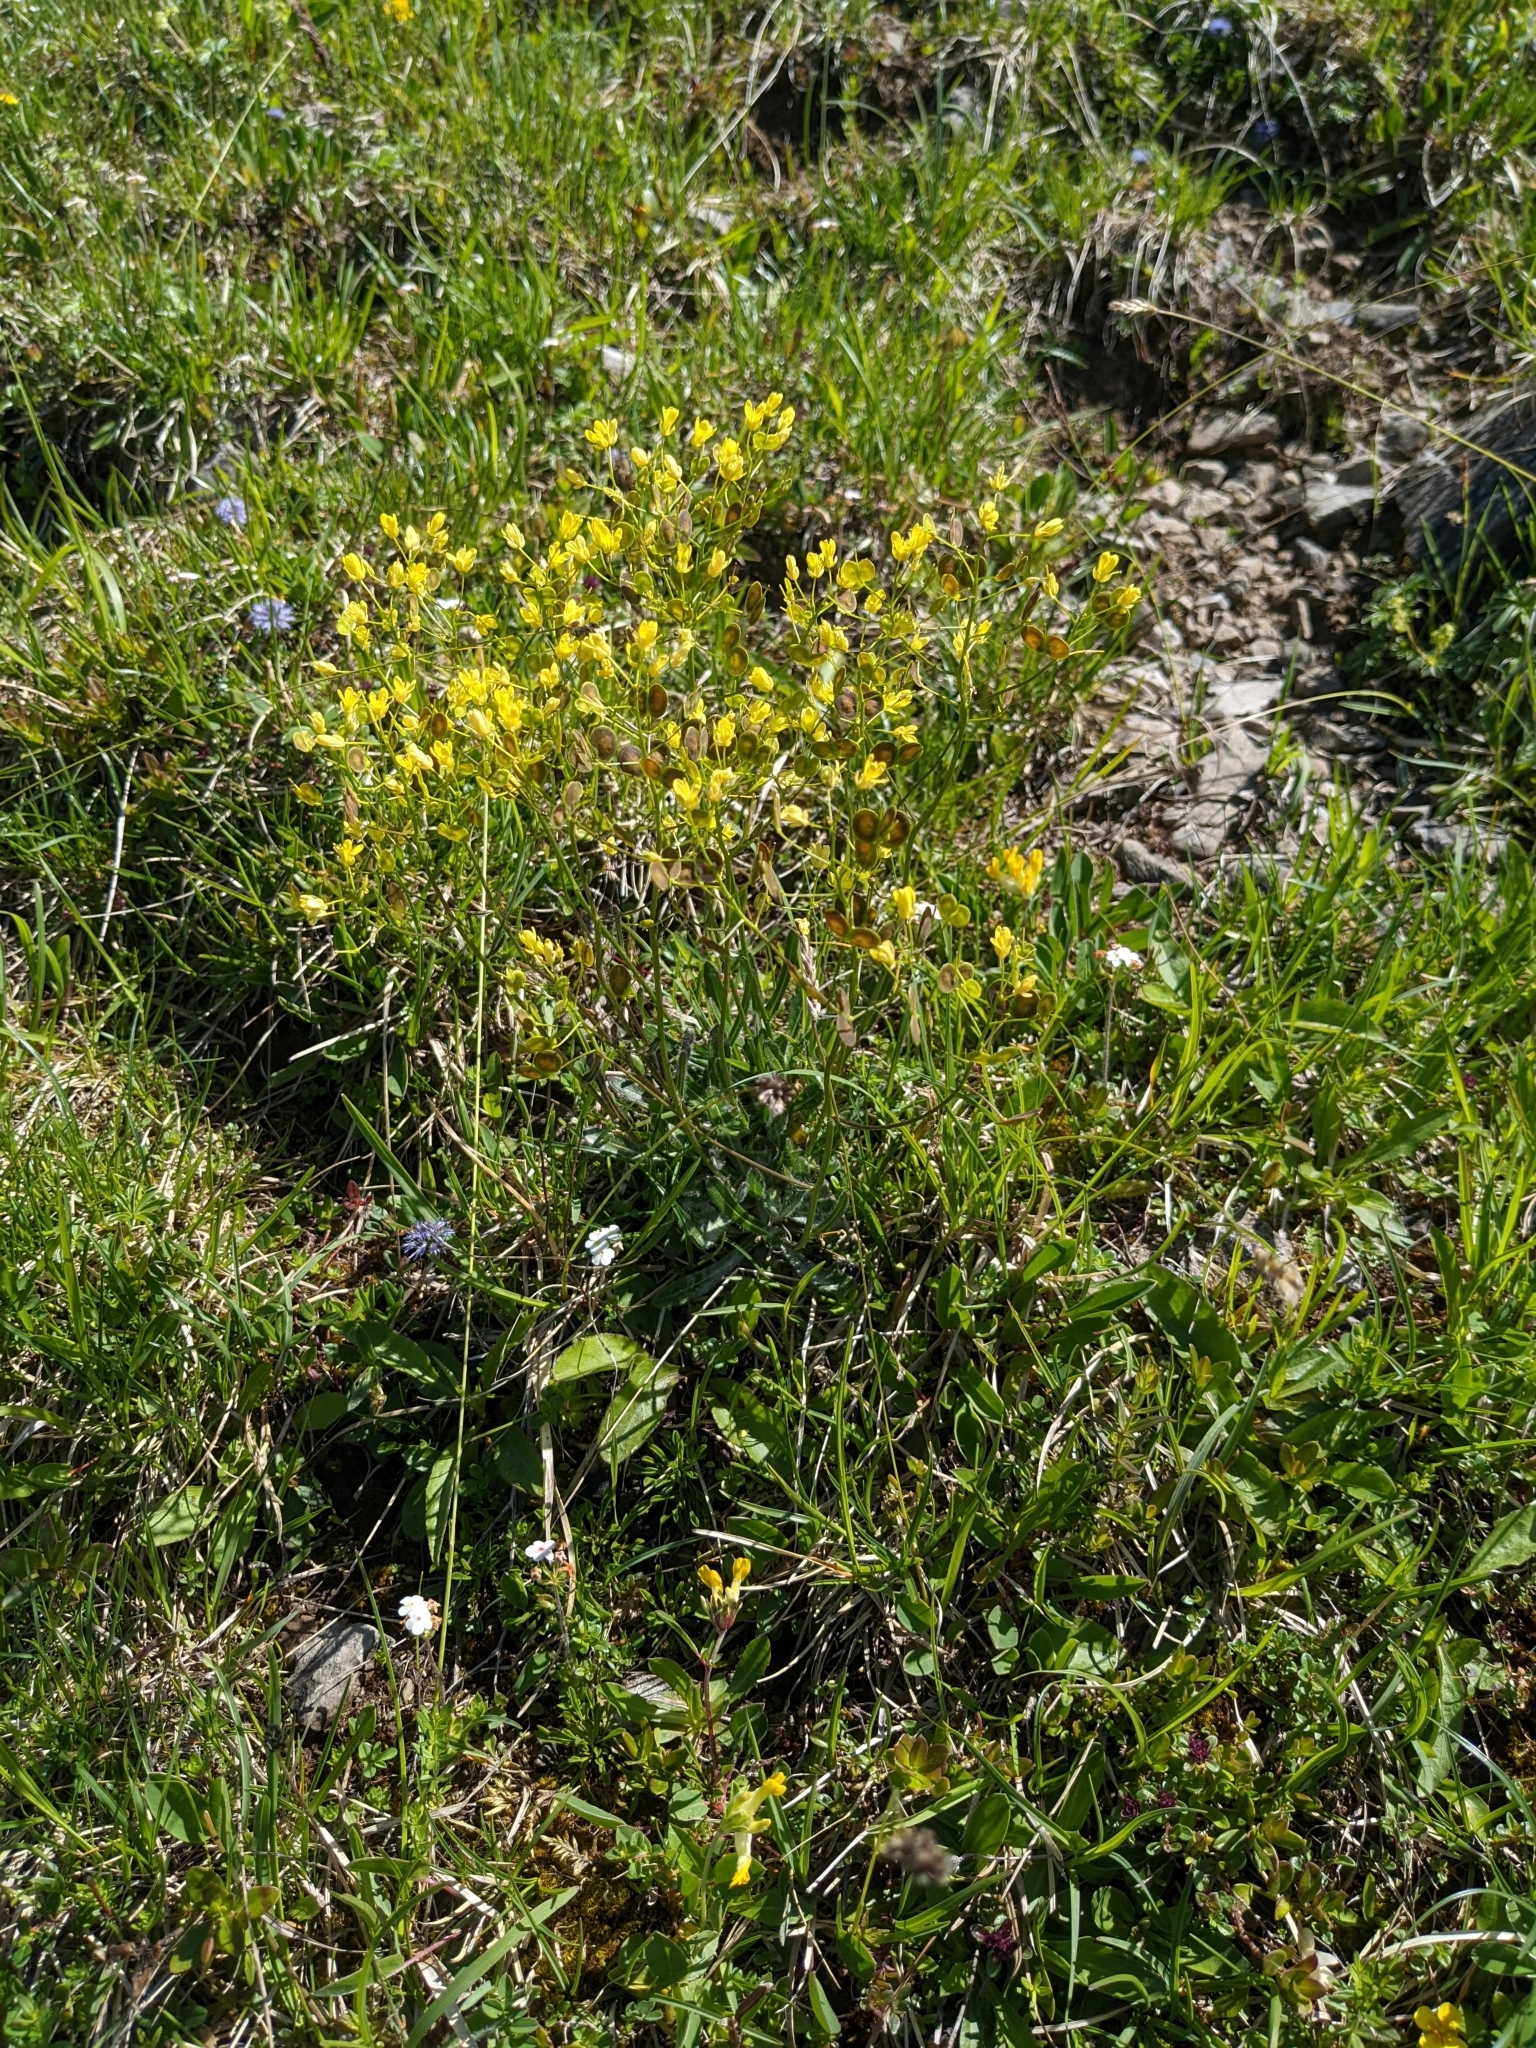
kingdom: Plantae
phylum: Tracheophyta
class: Magnoliopsida
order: Brassicales
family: Brassicaceae
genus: Biscutella
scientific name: Biscutella laevigata
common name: Buckler mustard
